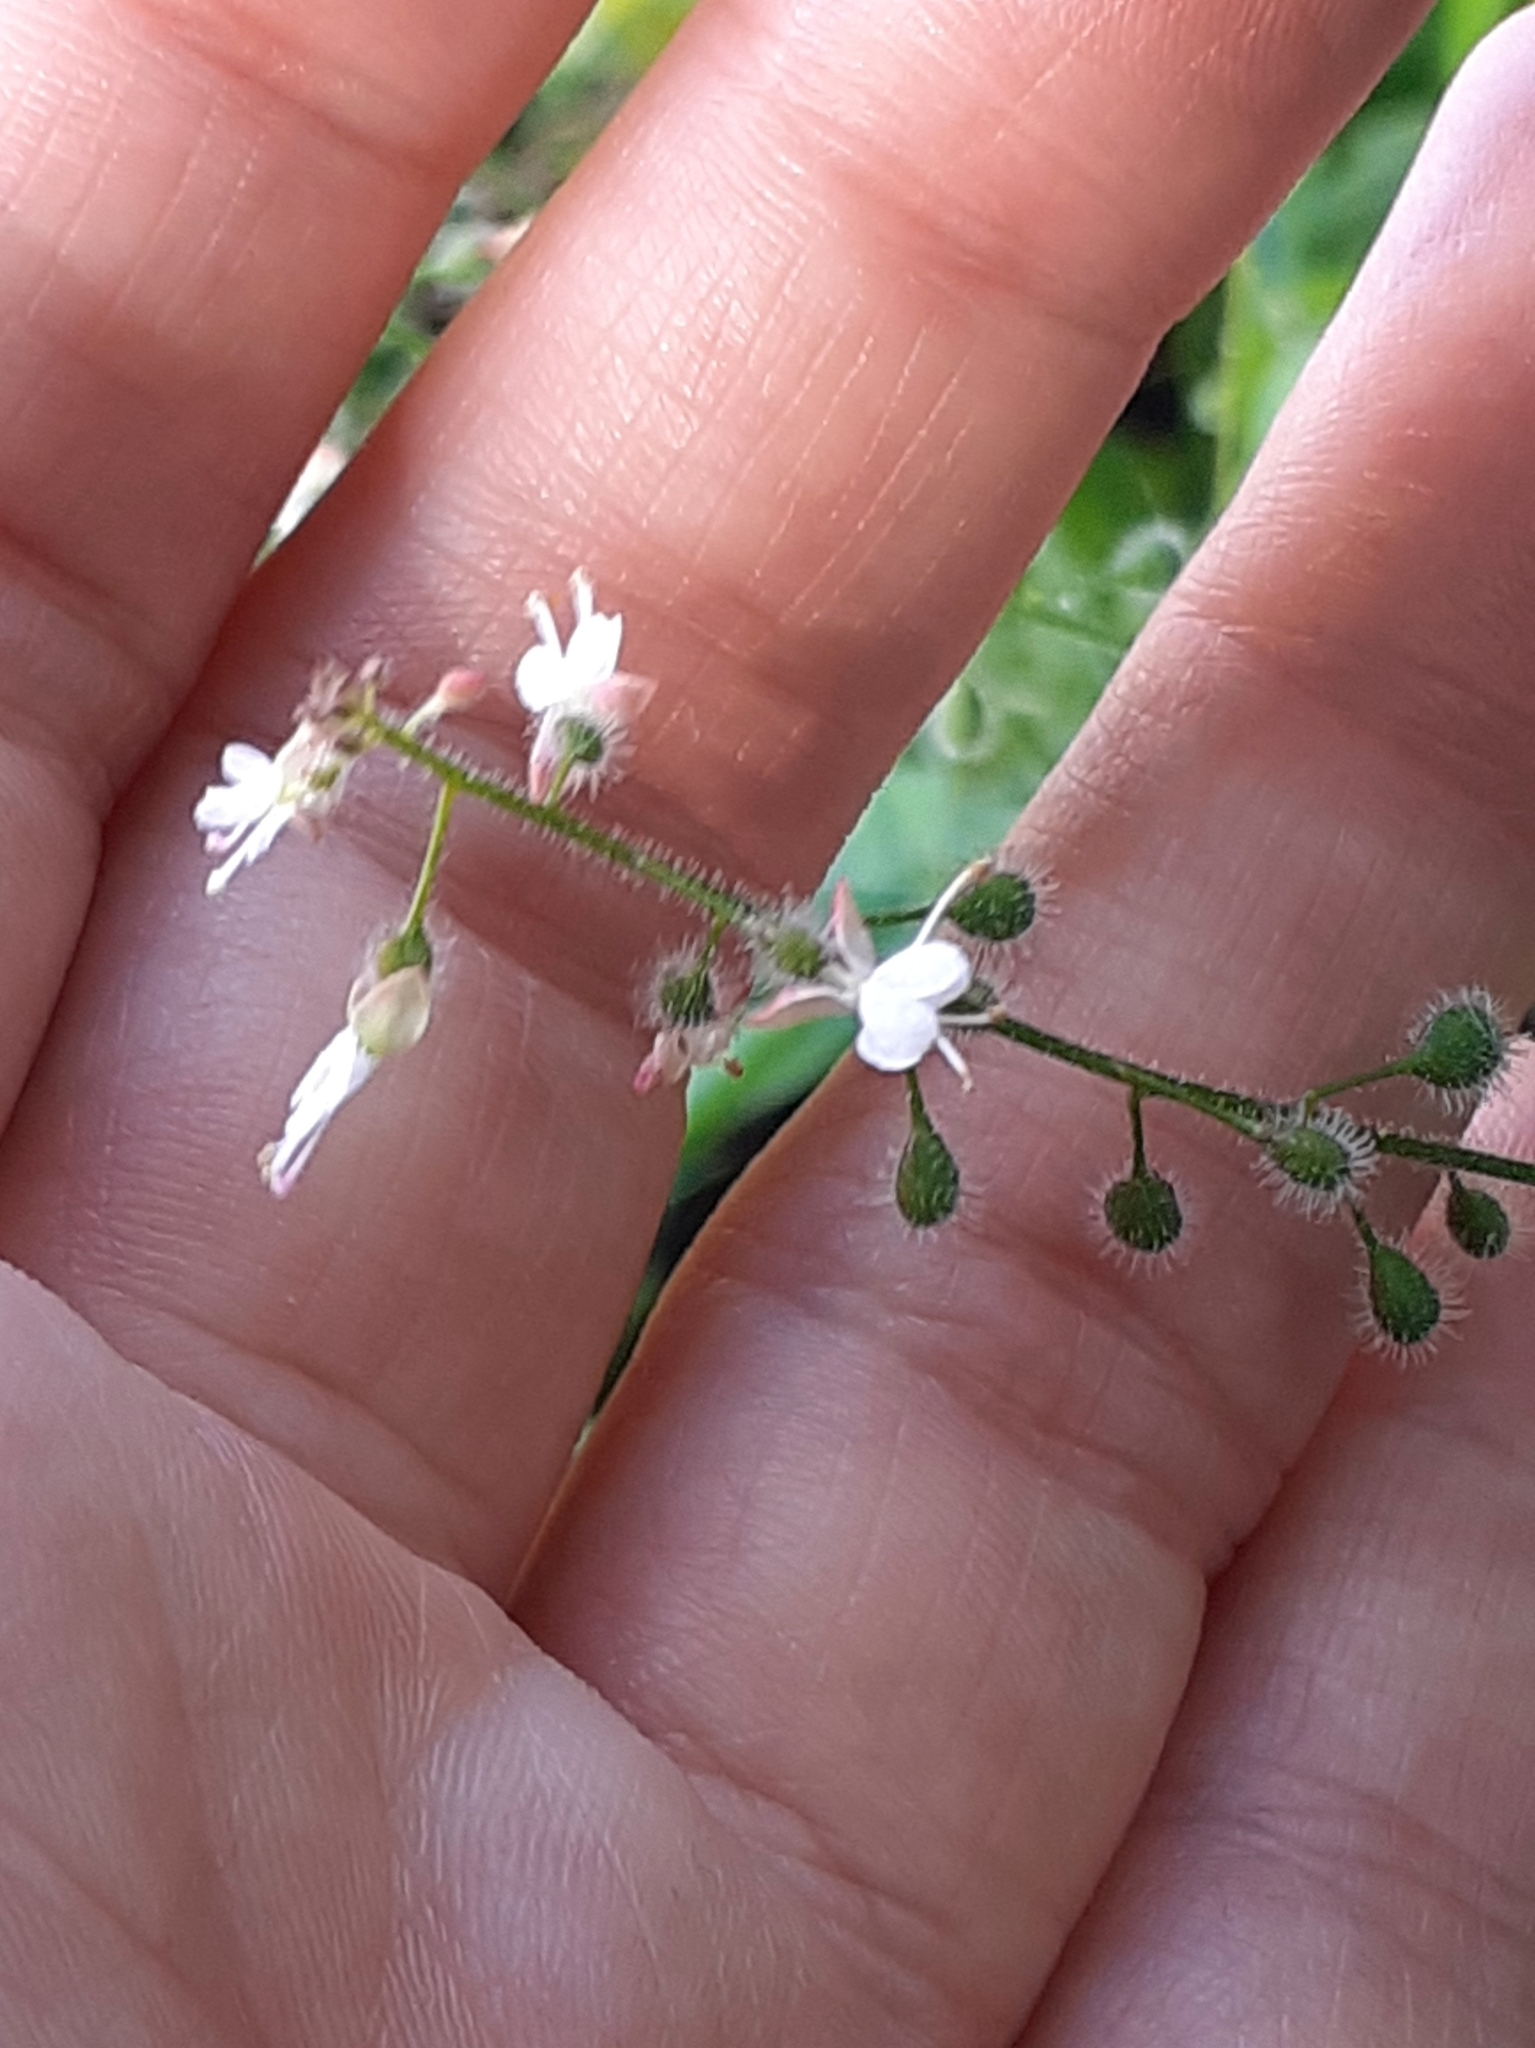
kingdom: Plantae
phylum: Tracheophyta
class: Magnoliopsida
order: Myrtales
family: Onagraceae
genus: Circaea
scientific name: Circaea lutetiana
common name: Enchanter's-nightshade
